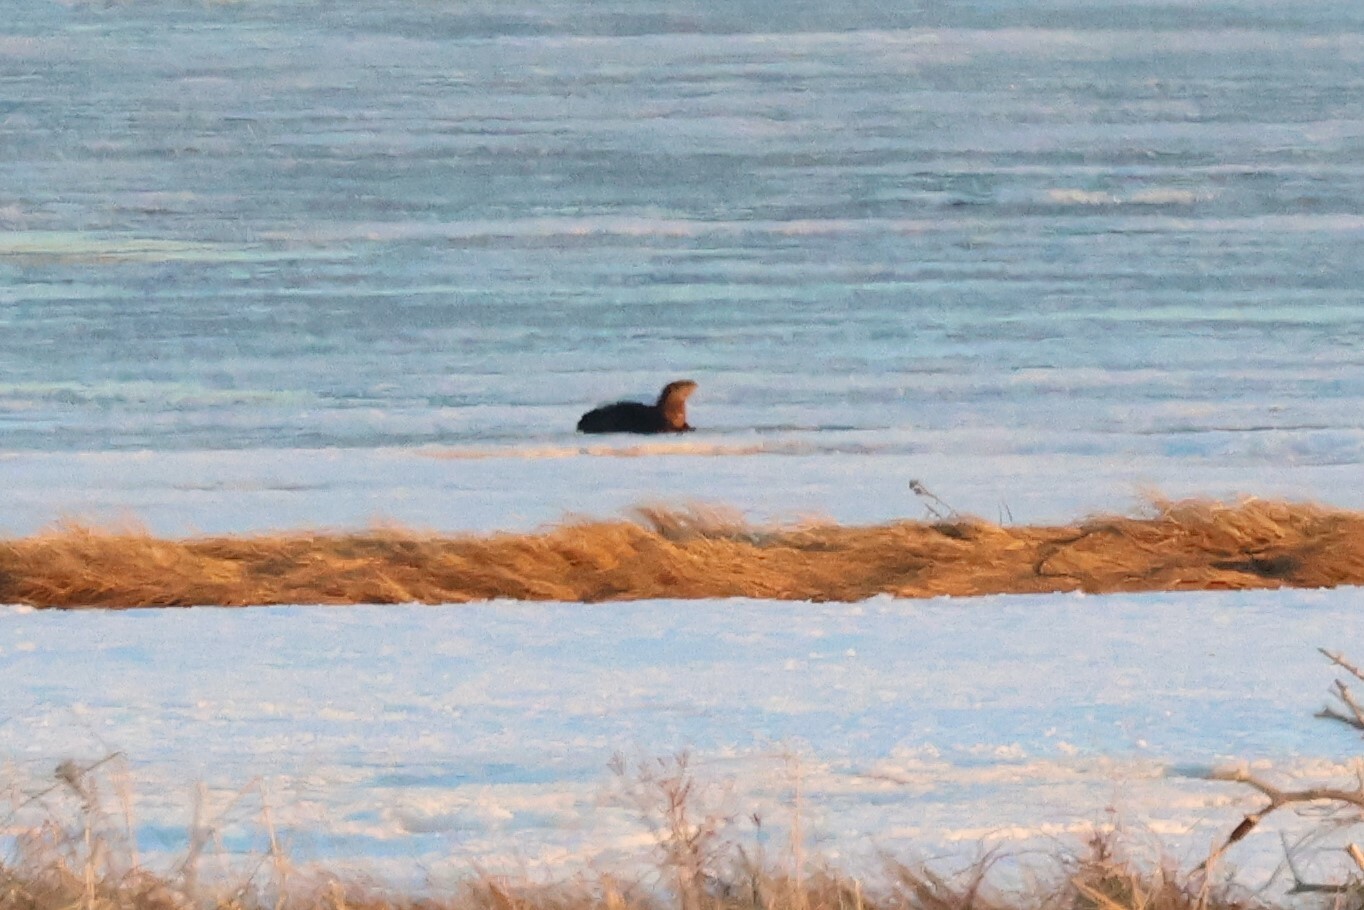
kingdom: Animalia
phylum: Chordata
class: Mammalia
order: Carnivora
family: Mustelidae
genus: Lontra
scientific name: Lontra canadensis
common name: North american river otter
